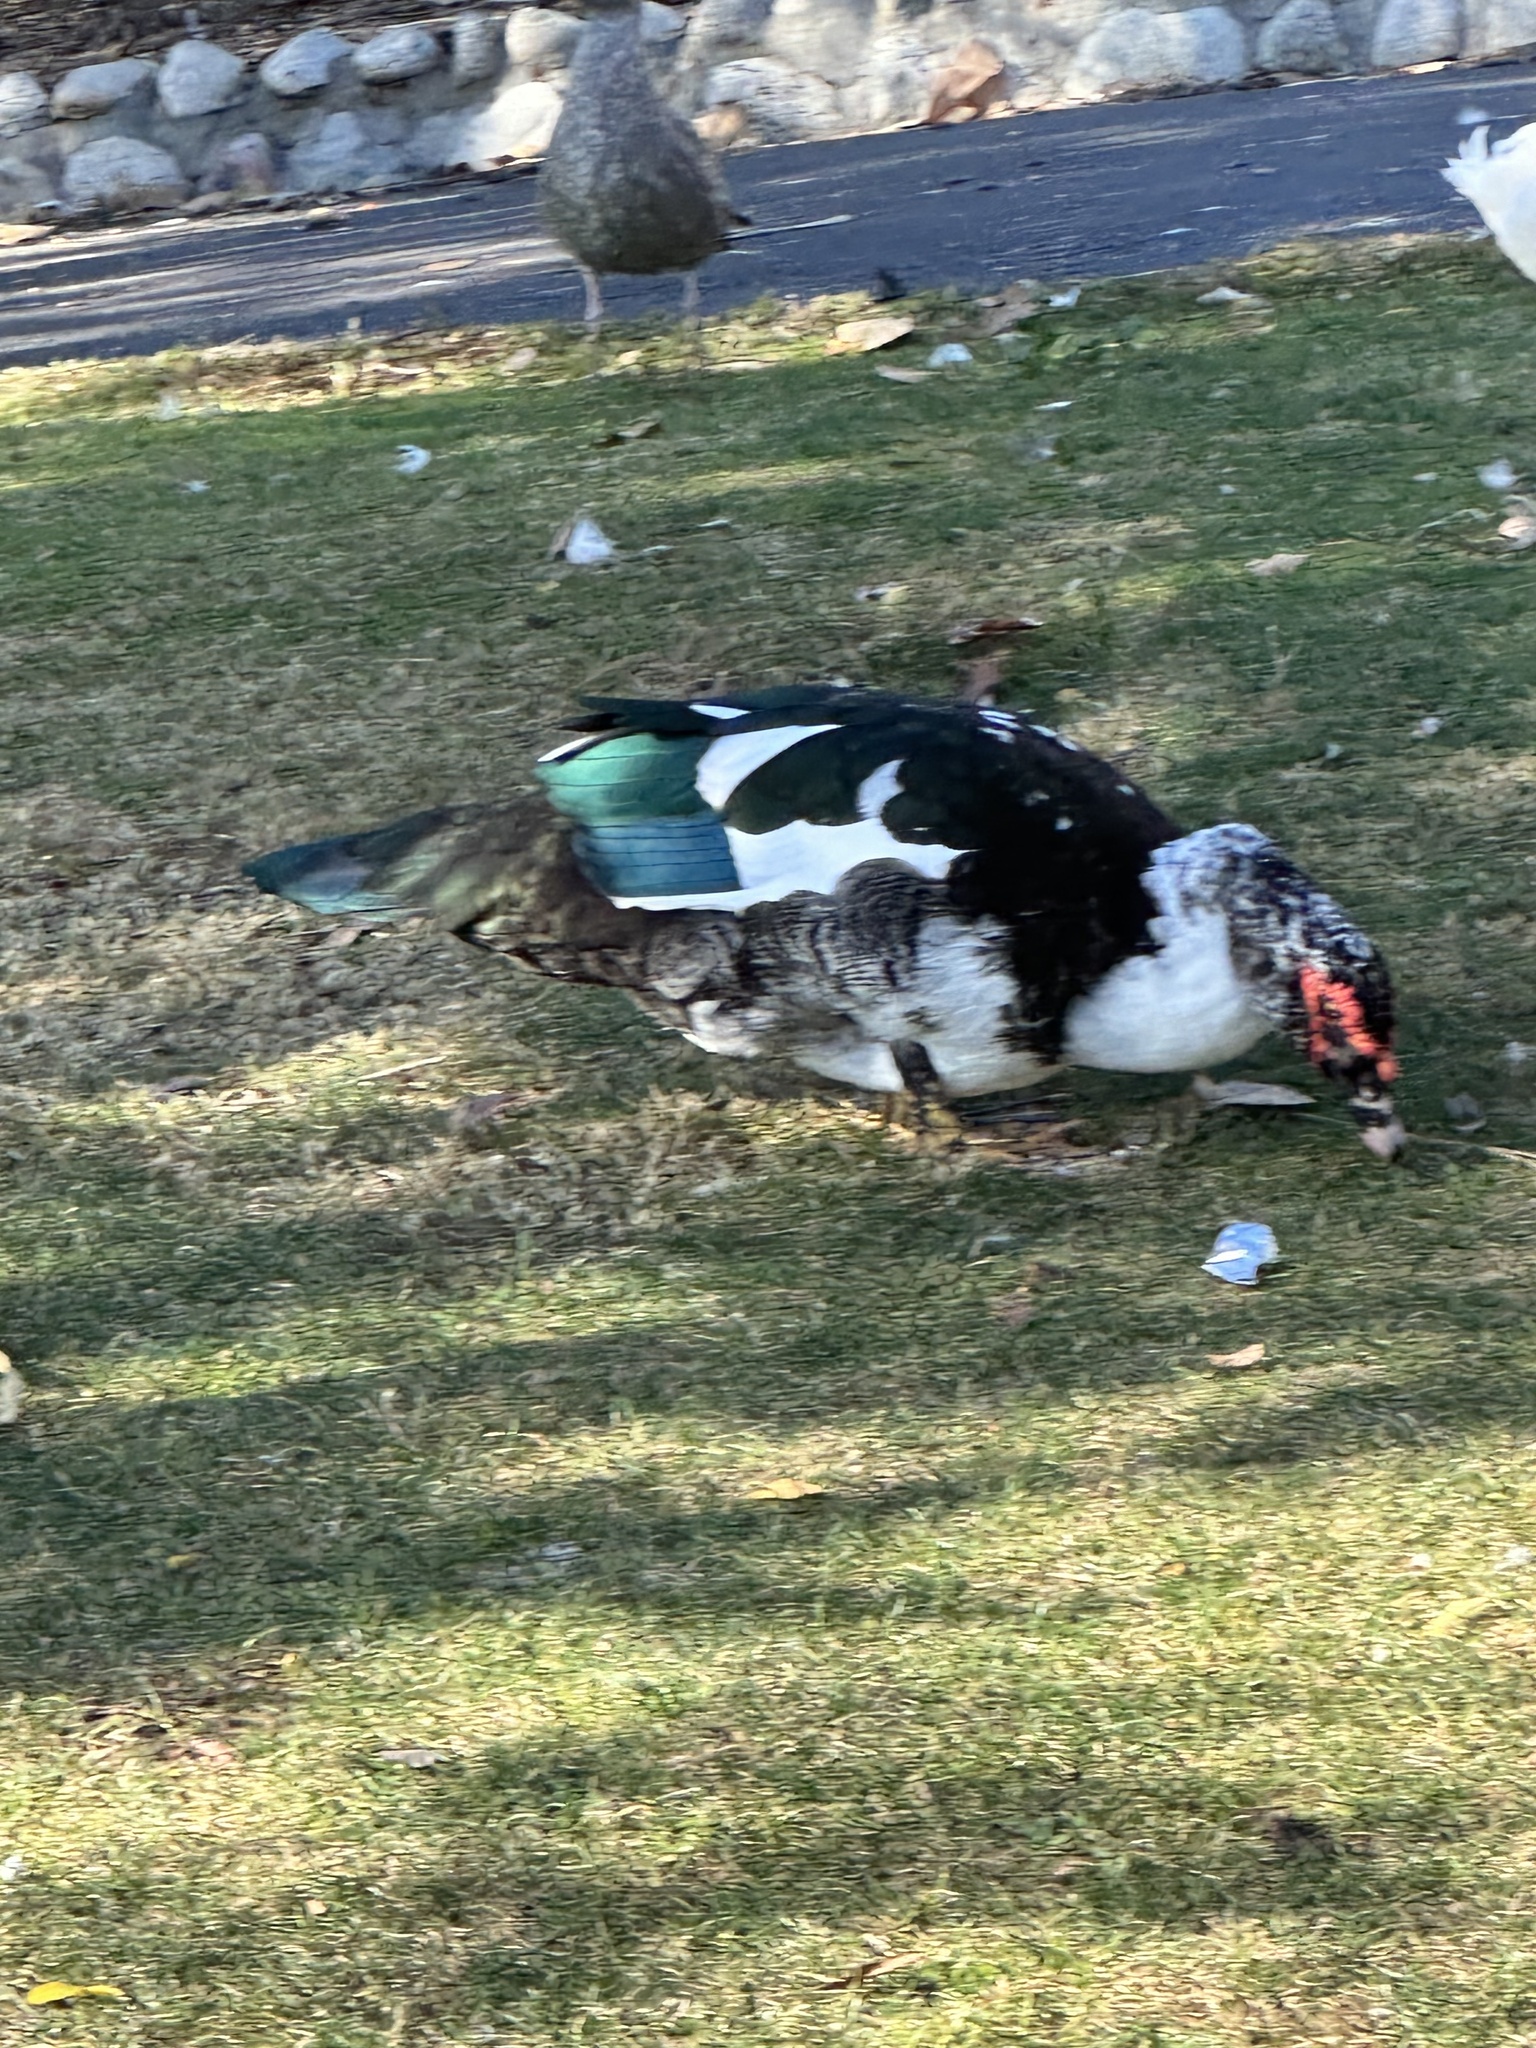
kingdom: Animalia
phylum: Chordata
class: Aves
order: Anseriformes
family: Anatidae
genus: Cairina
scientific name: Cairina moschata
